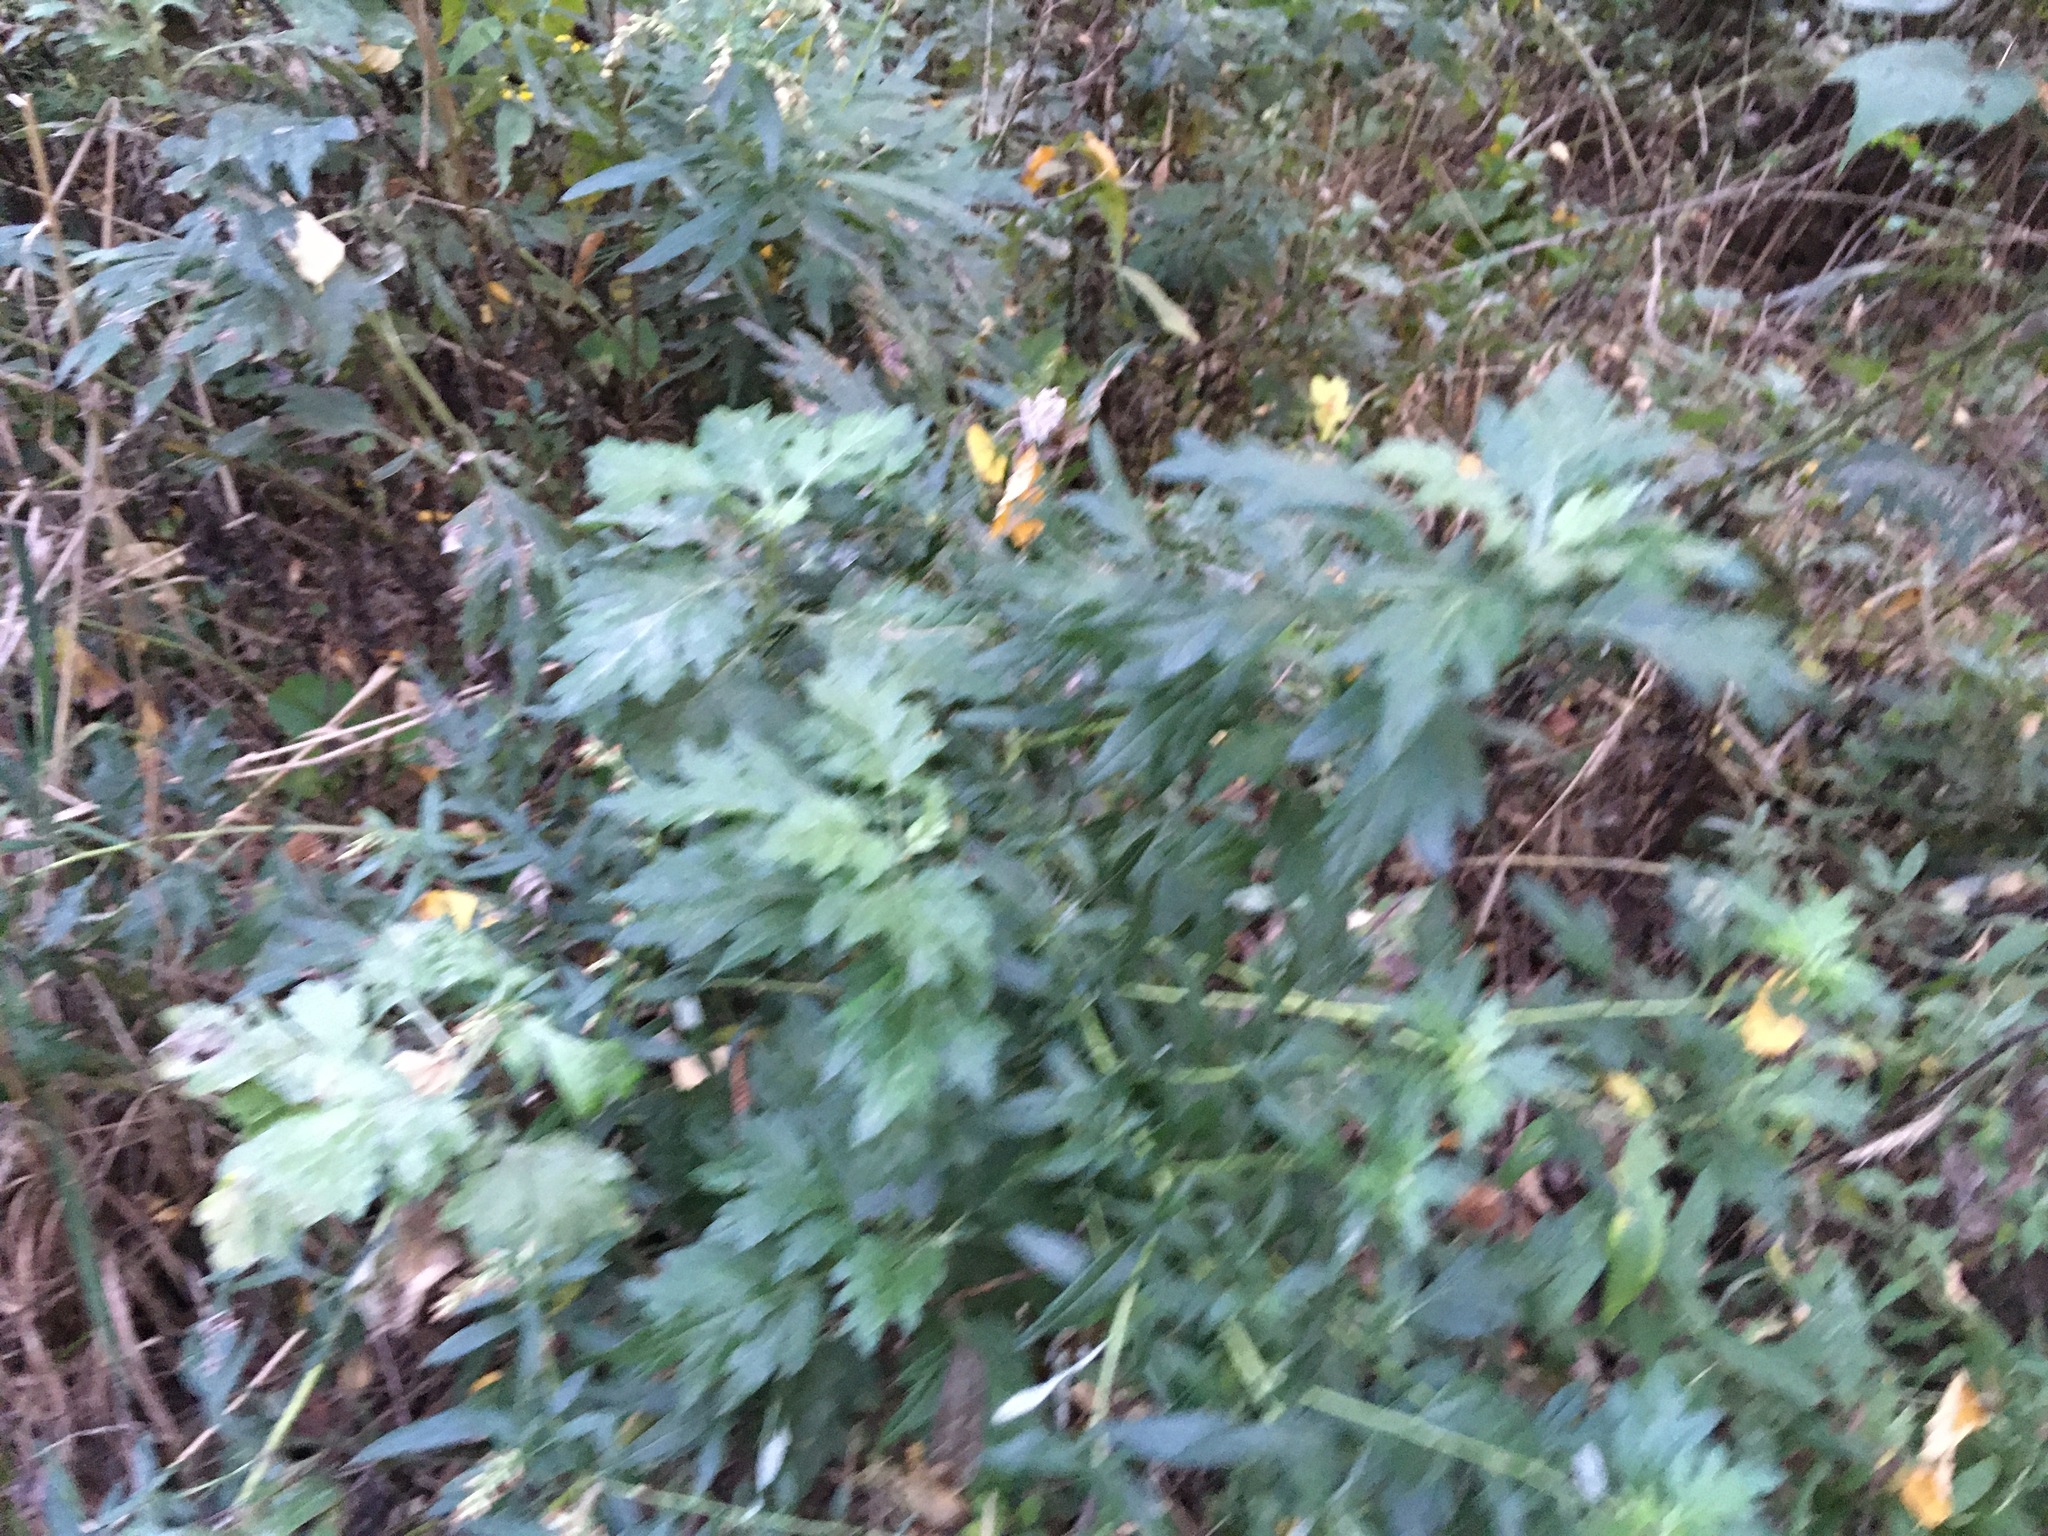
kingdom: Plantae
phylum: Tracheophyta
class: Magnoliopsida
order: Asterales
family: Asteraceae
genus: Artemisia
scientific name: Artemisia vulgaris
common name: Mugwort
